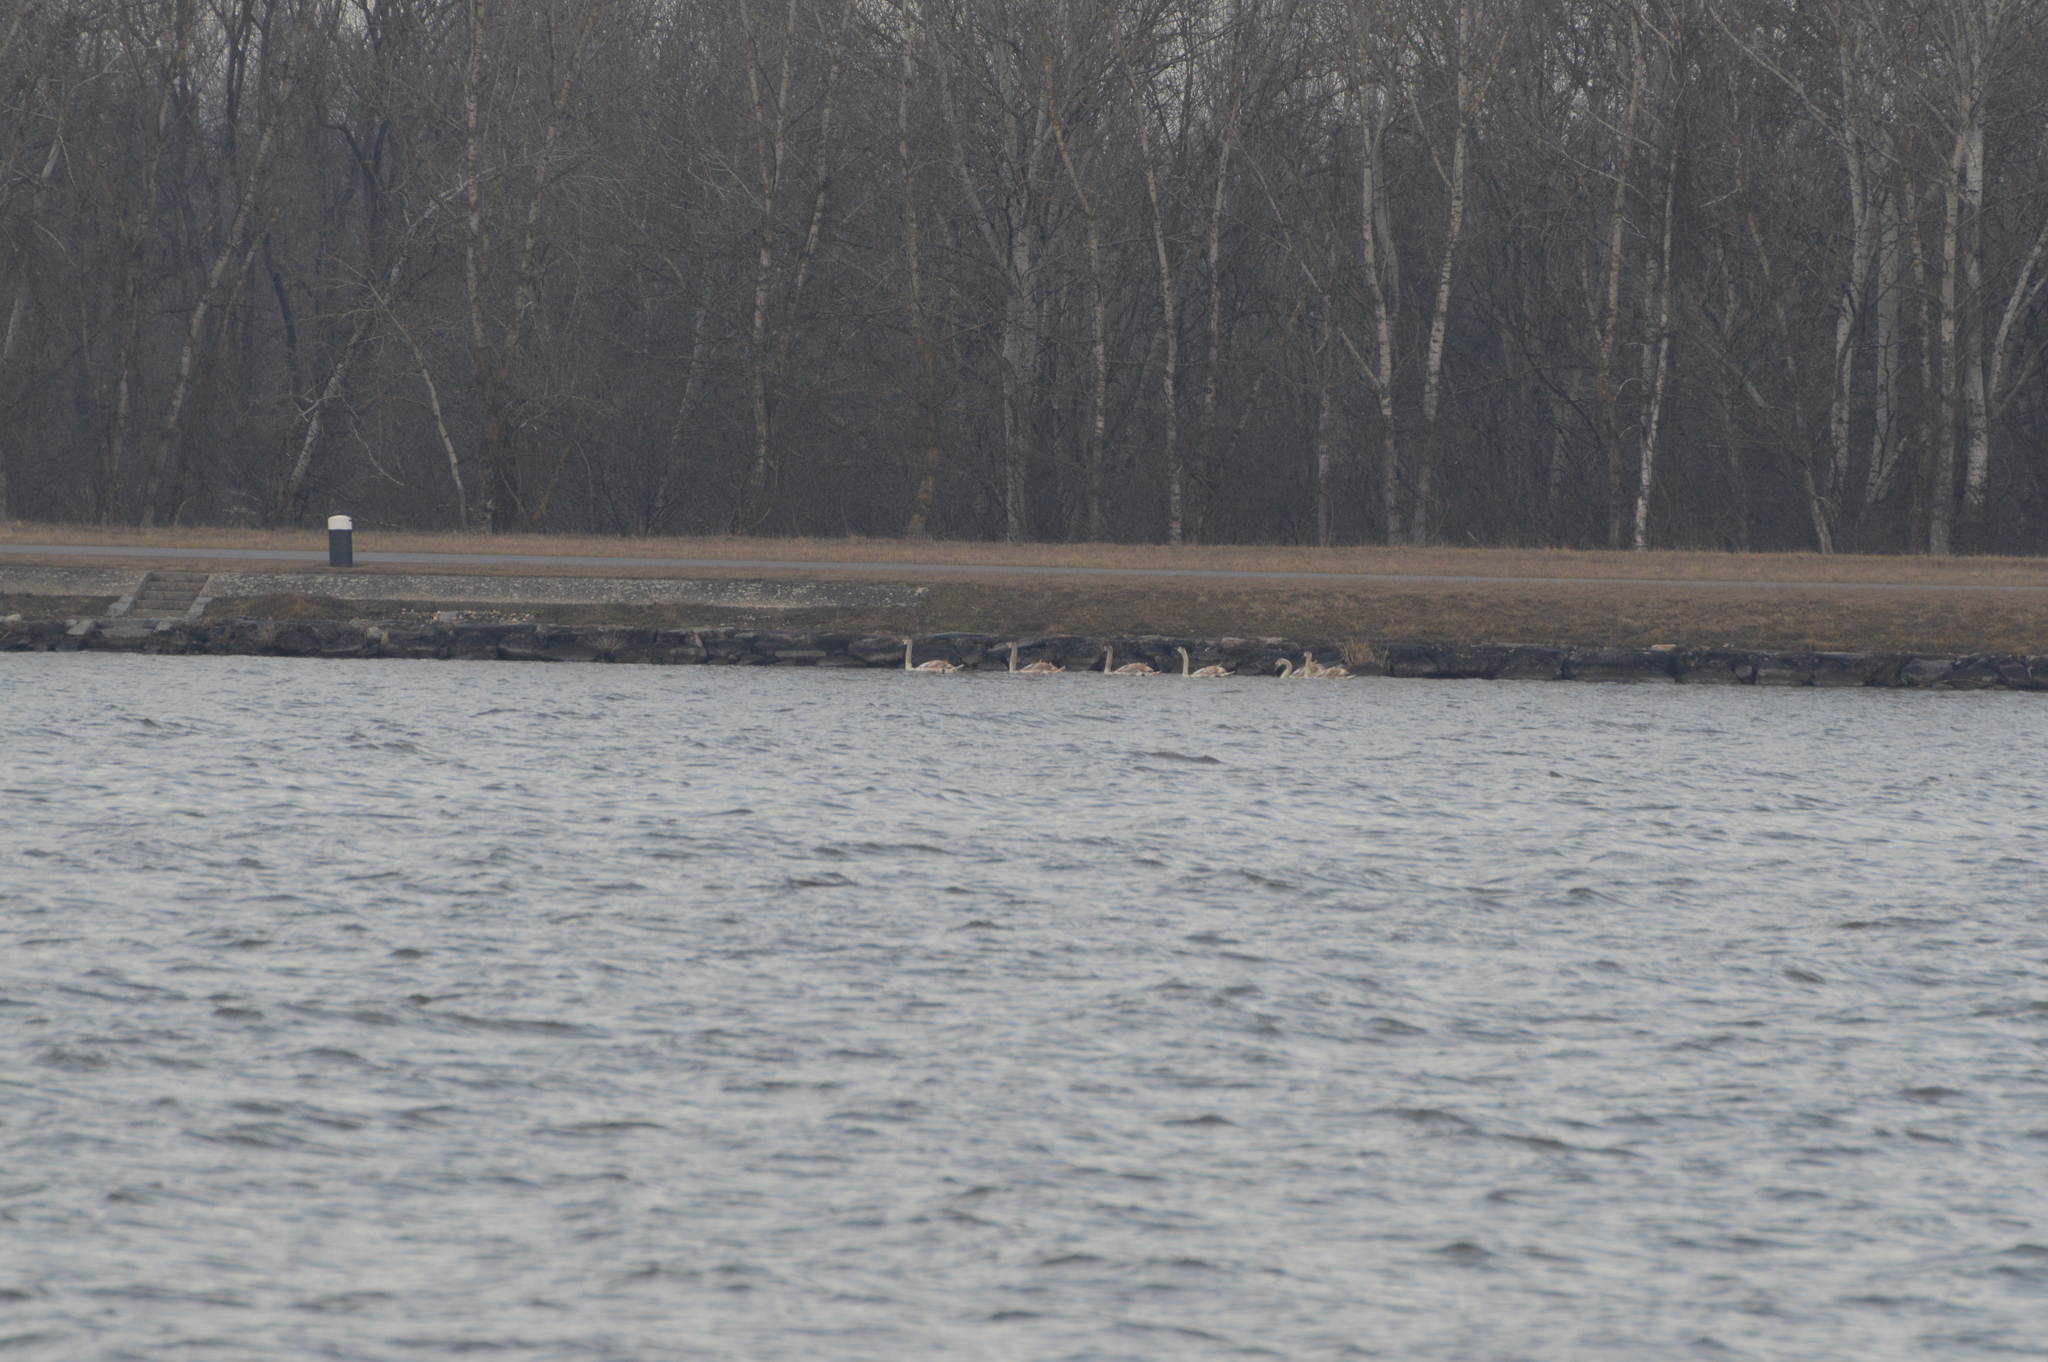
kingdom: Animalia
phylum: Chordata
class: Aves
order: Anseriformes
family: Anatidae
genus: Cygnus
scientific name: Cygnus olor
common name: Mute swan
